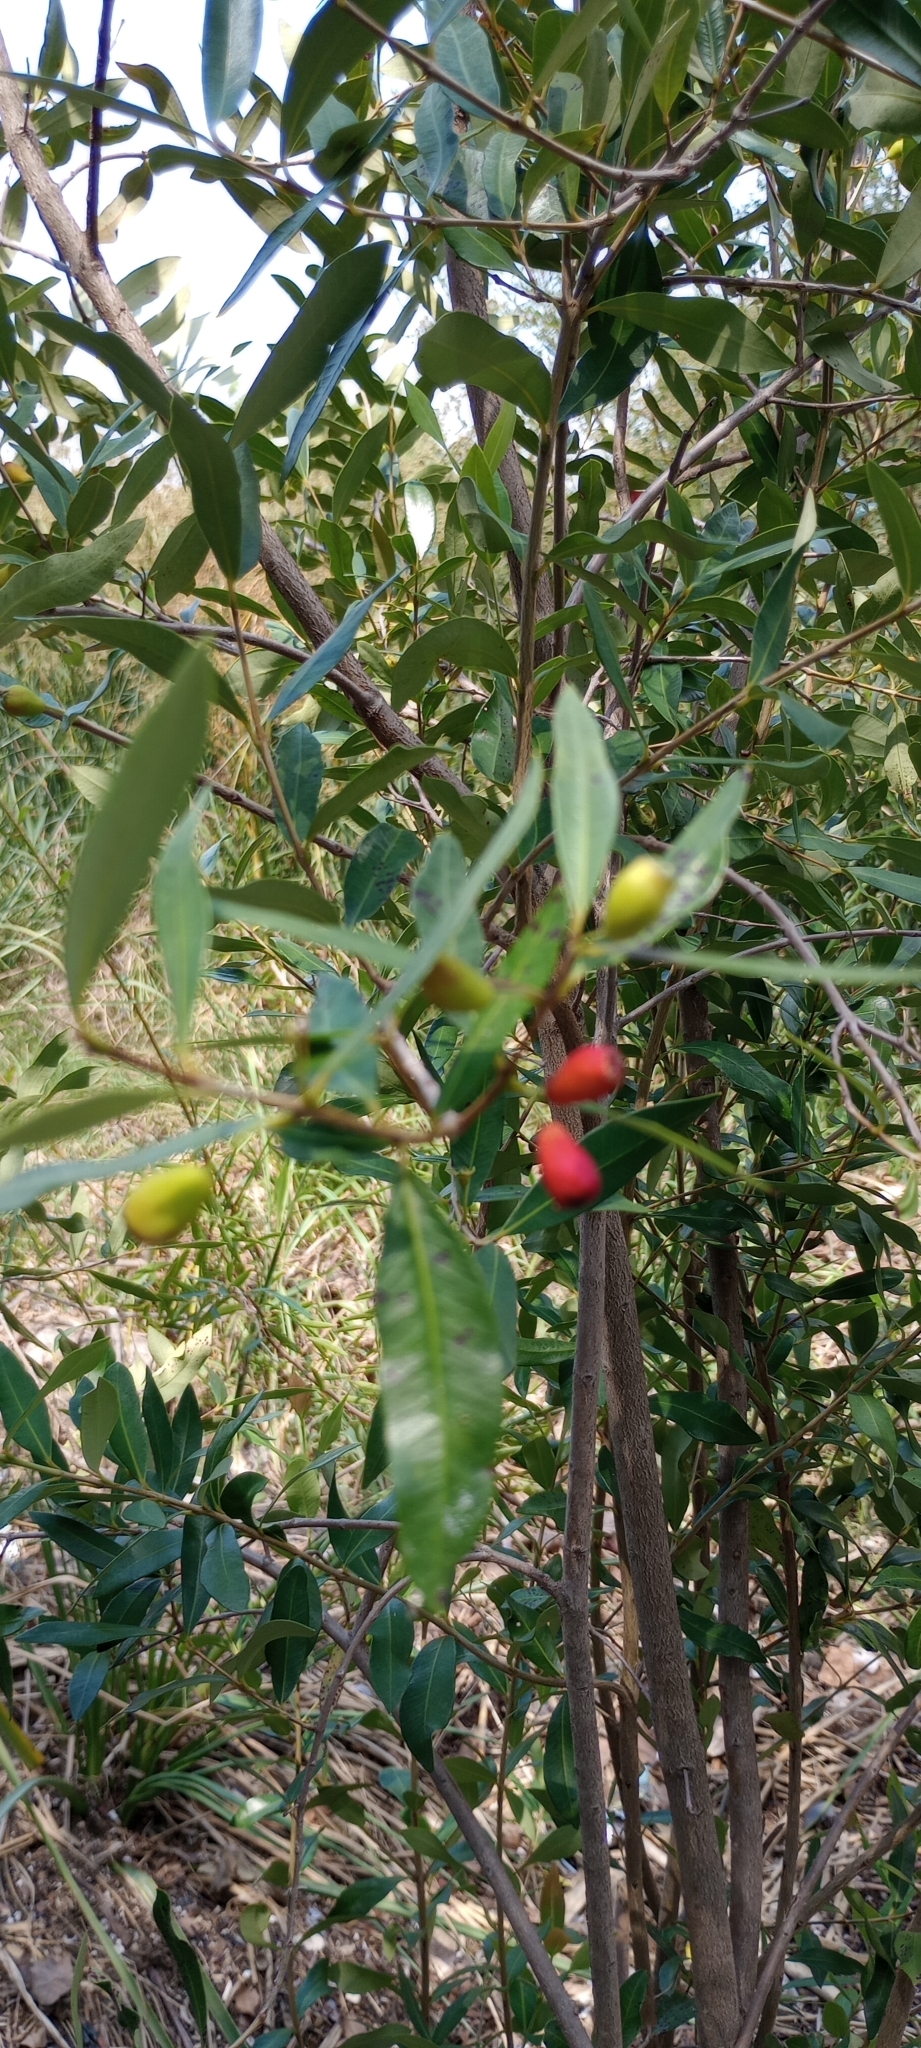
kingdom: Plantae
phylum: Tracheophyta
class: Magnoliopsida
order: Myrtales
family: Myrtaceae
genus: Myrceugenia
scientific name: Myrceugenia glaucescens
